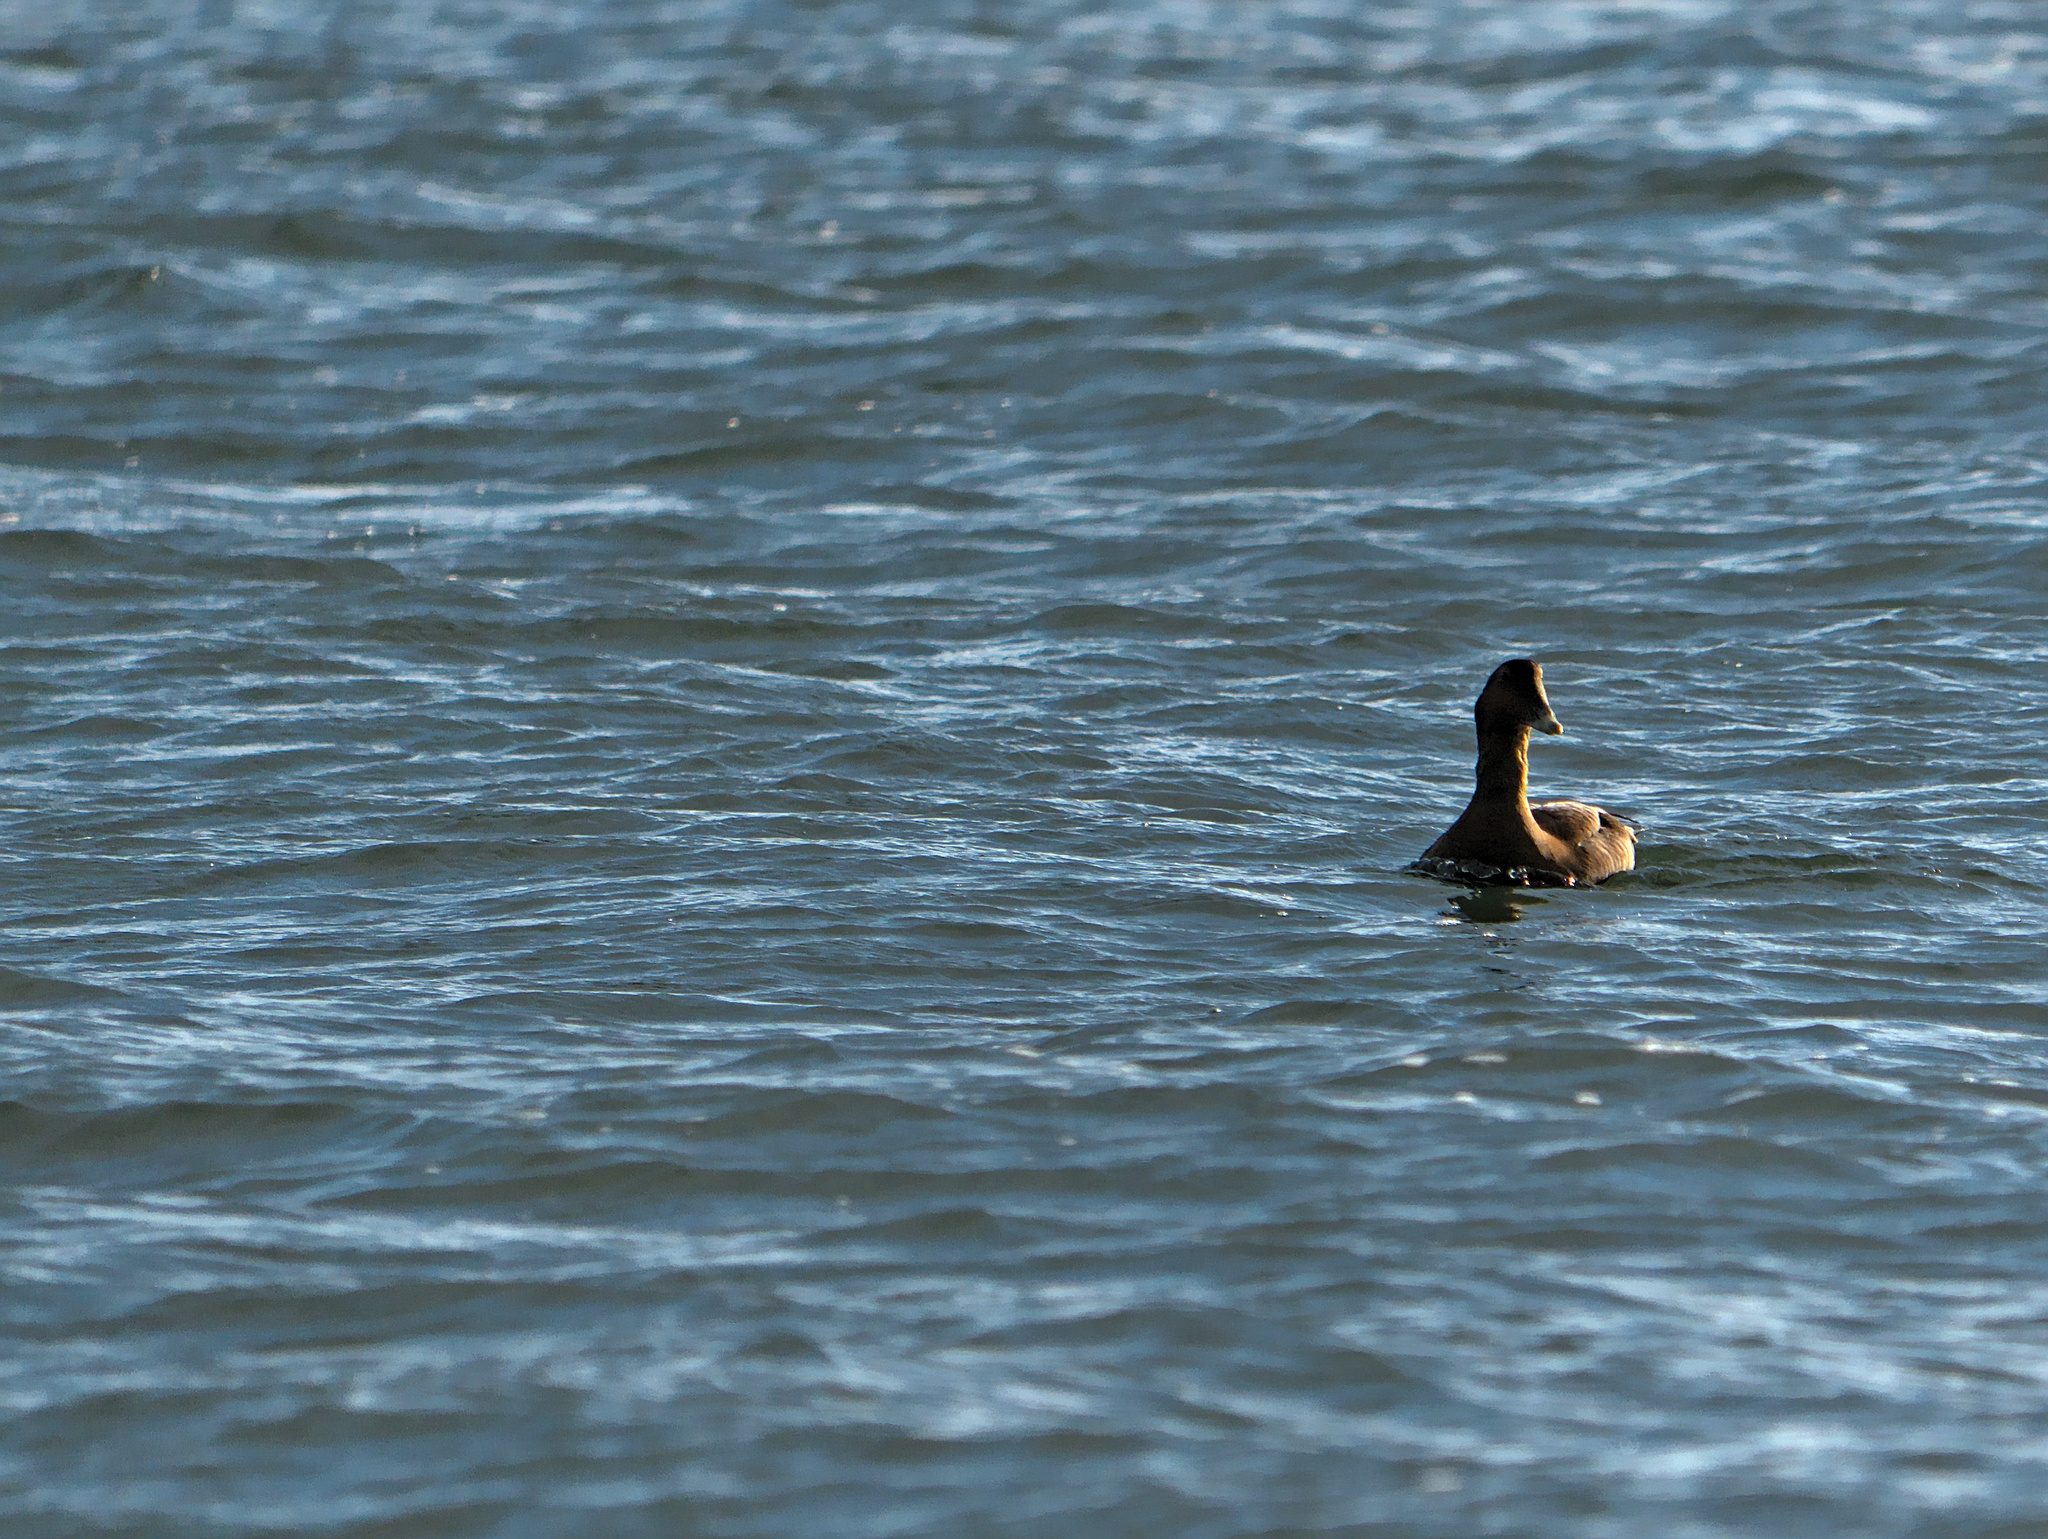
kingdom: Animalia
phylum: Chordata
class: Aves
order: Anseriformes
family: Anatidae
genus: Somateria
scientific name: Somateria mollissima
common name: Common eider
